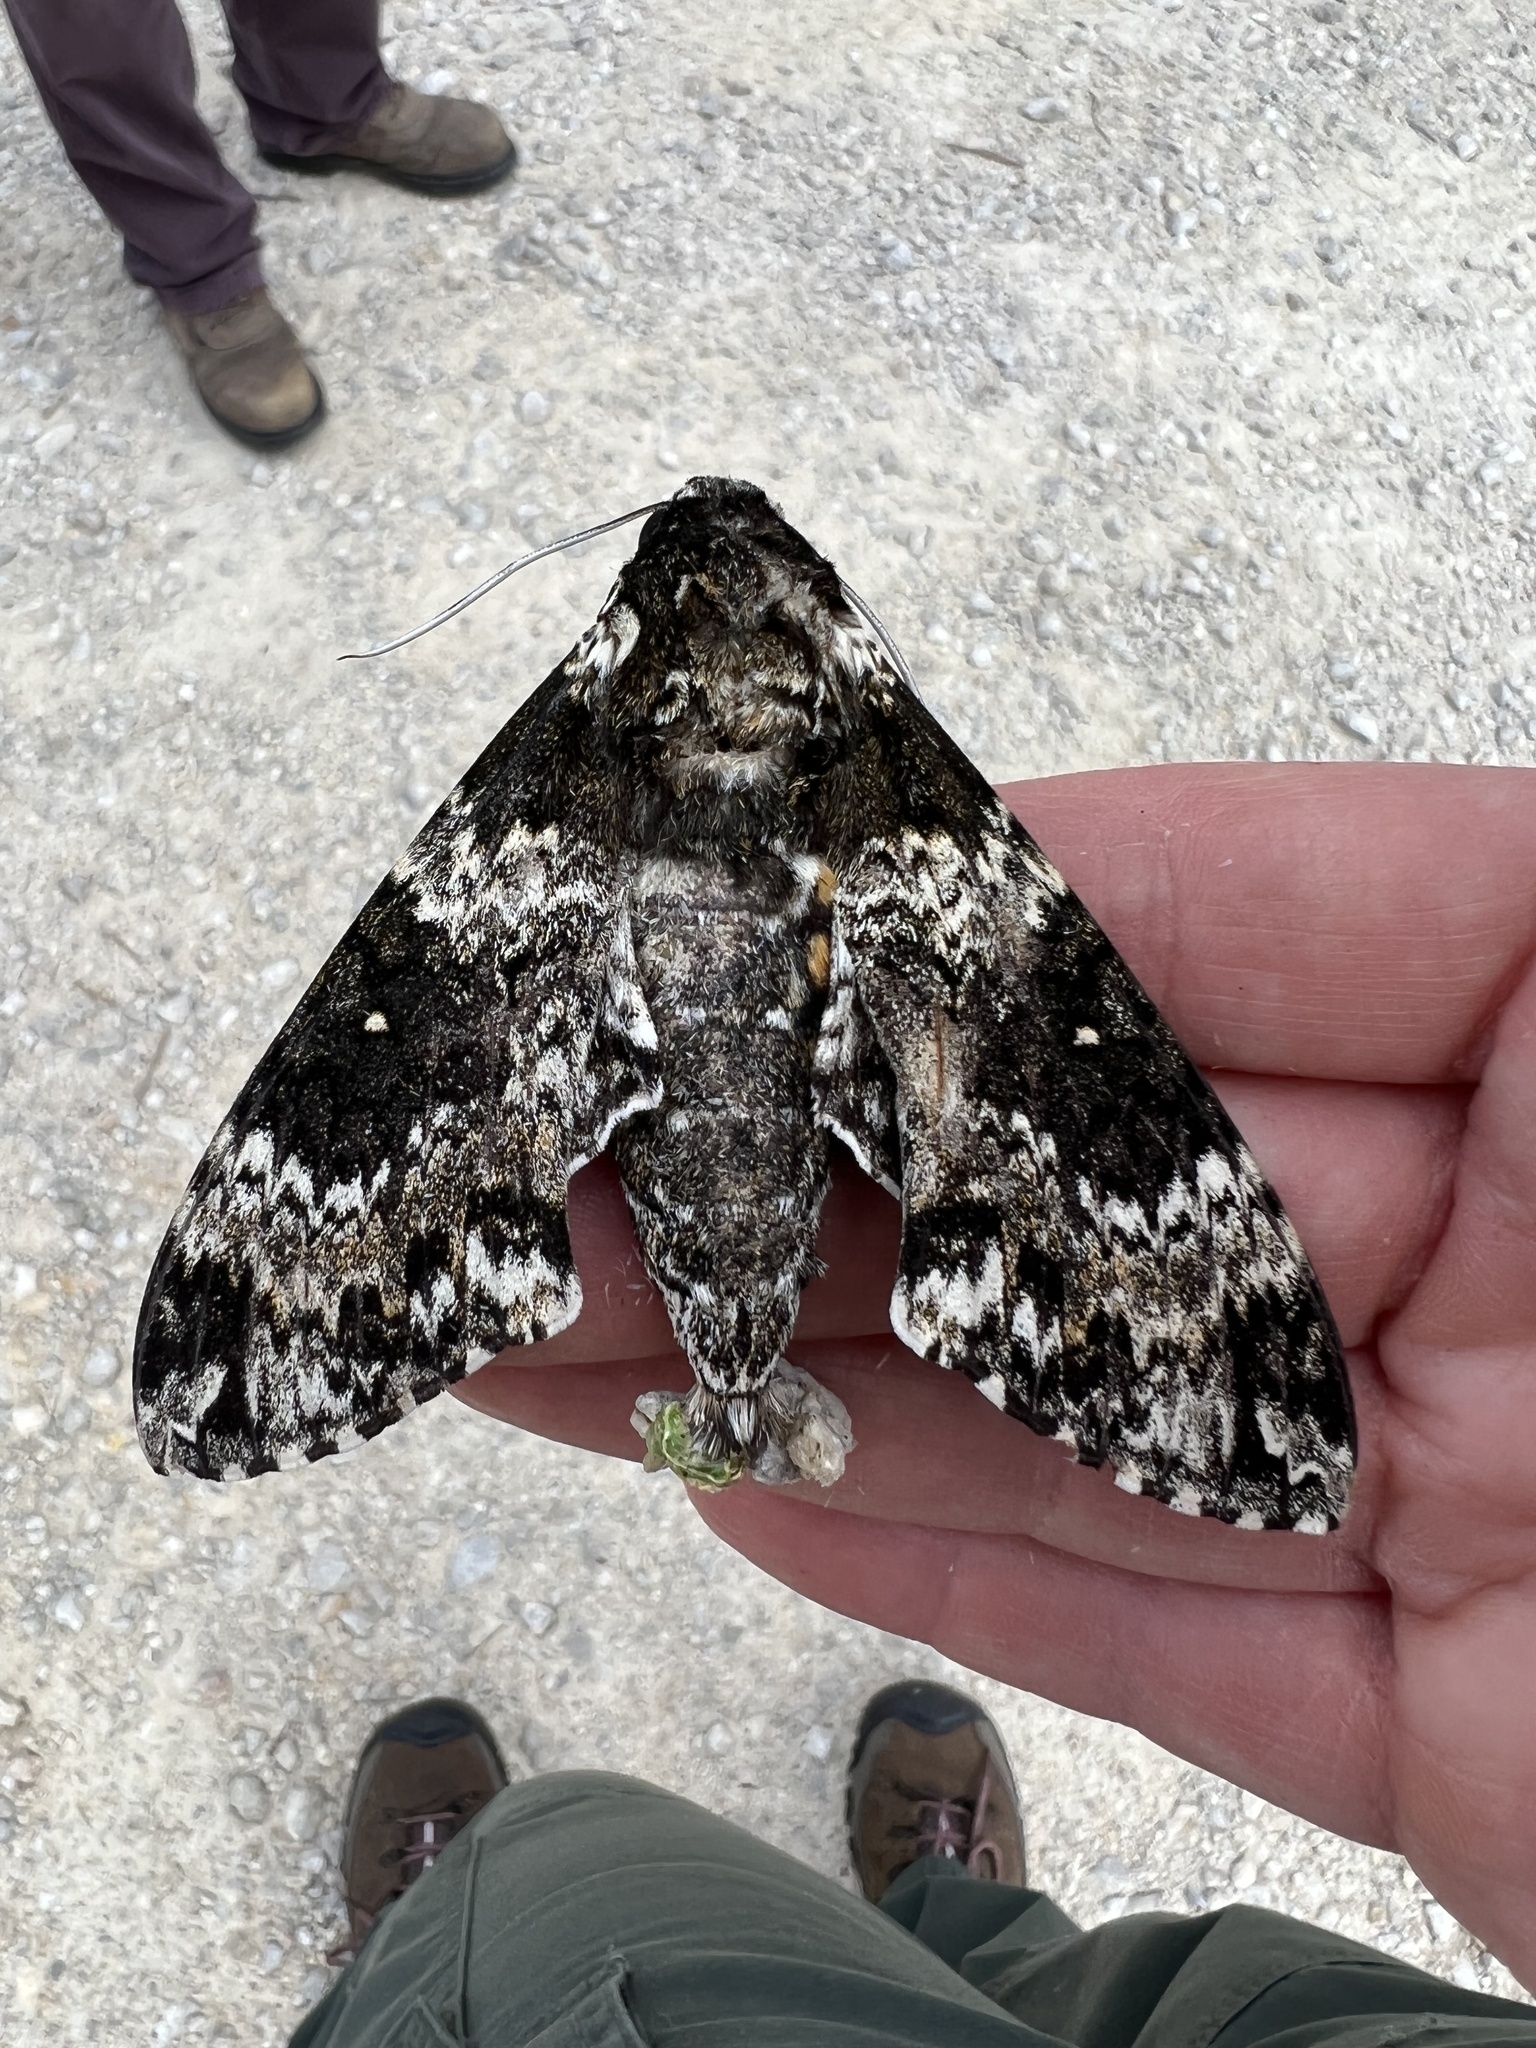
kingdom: Animalia
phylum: Arthropoda
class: Insecta
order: Lepidoptera
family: Sphingidae
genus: Manduca
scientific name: Manduca rustica
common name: Rustic sphinx
